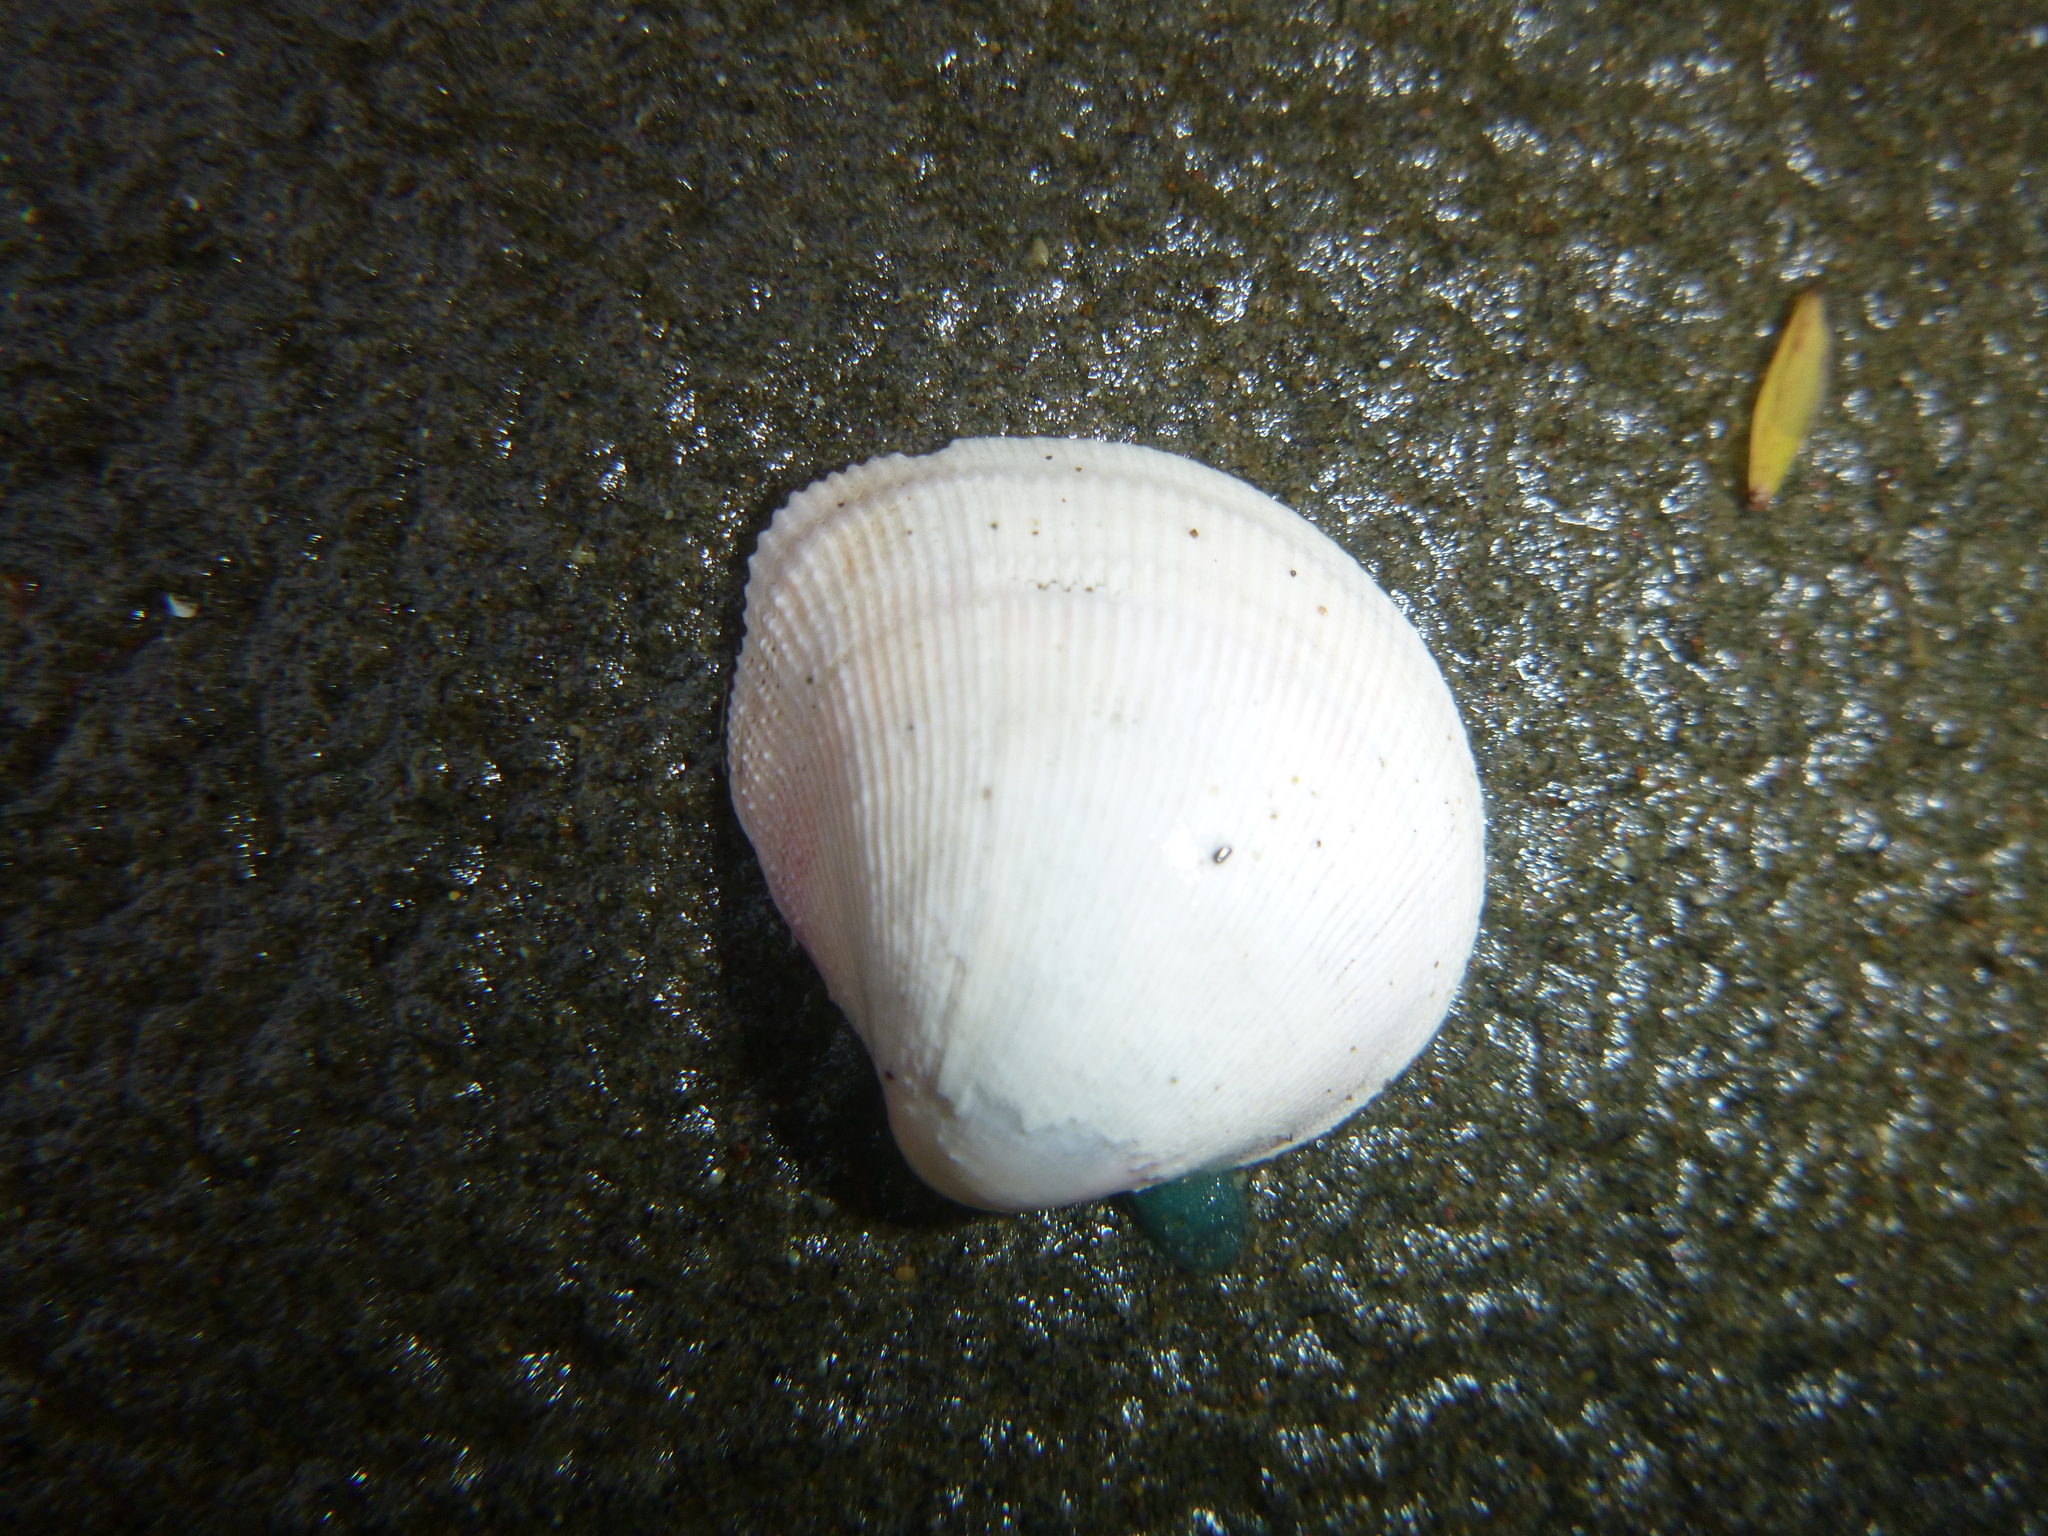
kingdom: Animalia
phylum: Mollusca
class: Bivalvia
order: Cardiida
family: Cardiidae
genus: Pratulum
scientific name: Pratulum pulchellum
